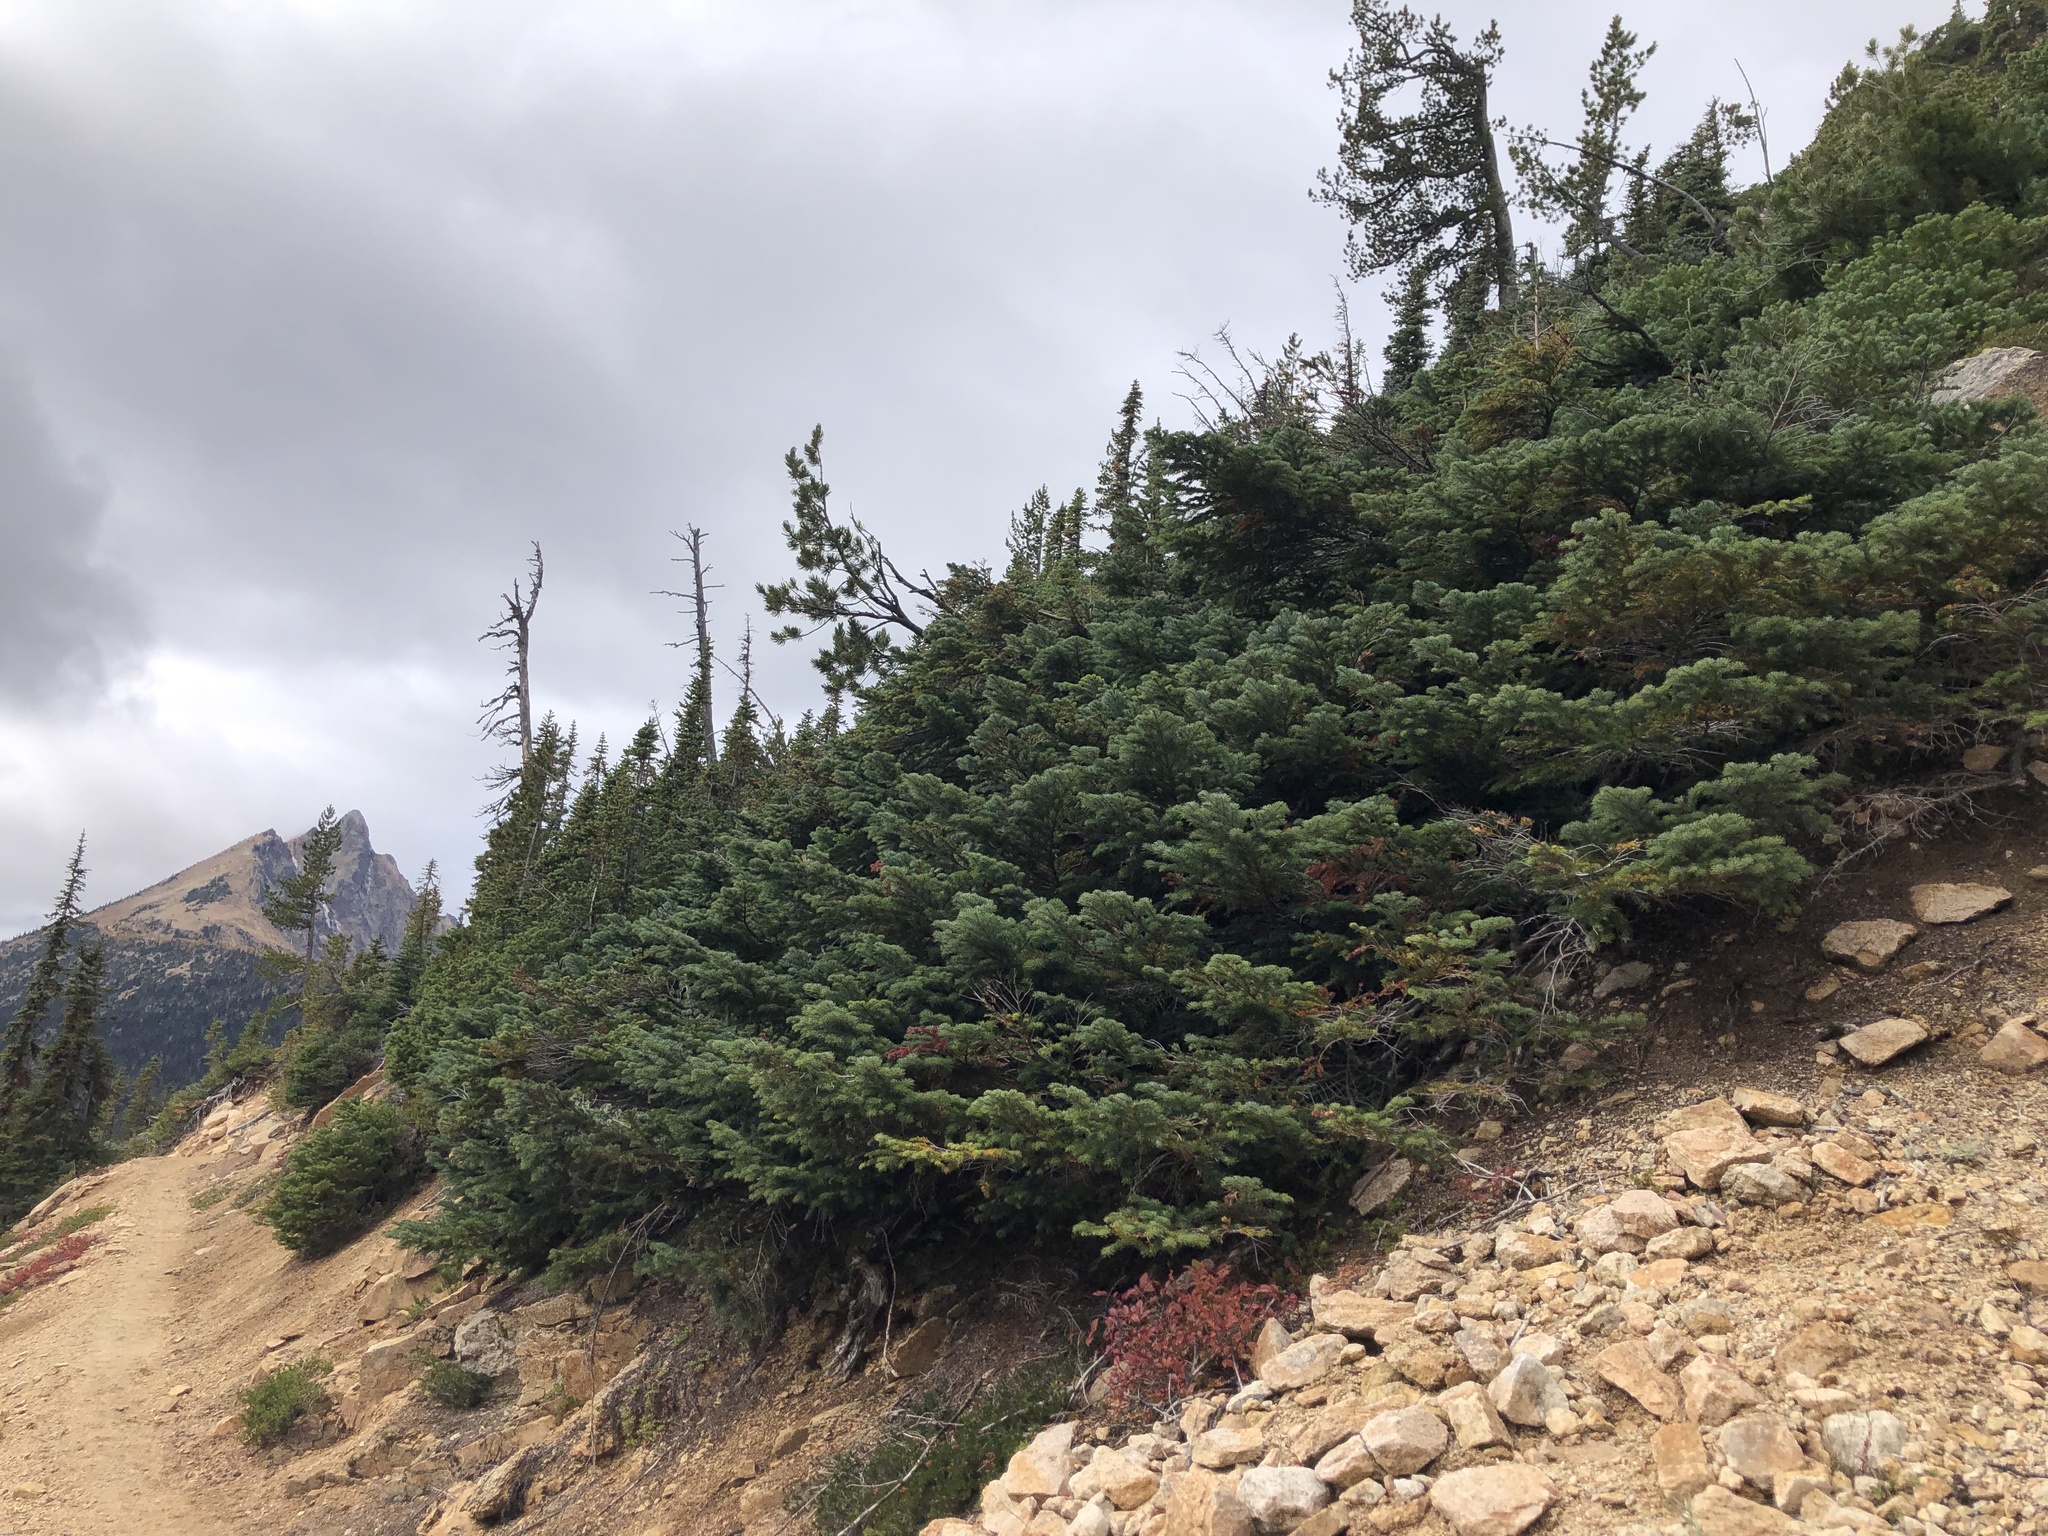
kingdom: Plantae
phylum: Tracheophyta
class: Pinopsida
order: Pinales
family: Pinaceae
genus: Abies
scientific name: Abies amabilis
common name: Pacific silver fir
